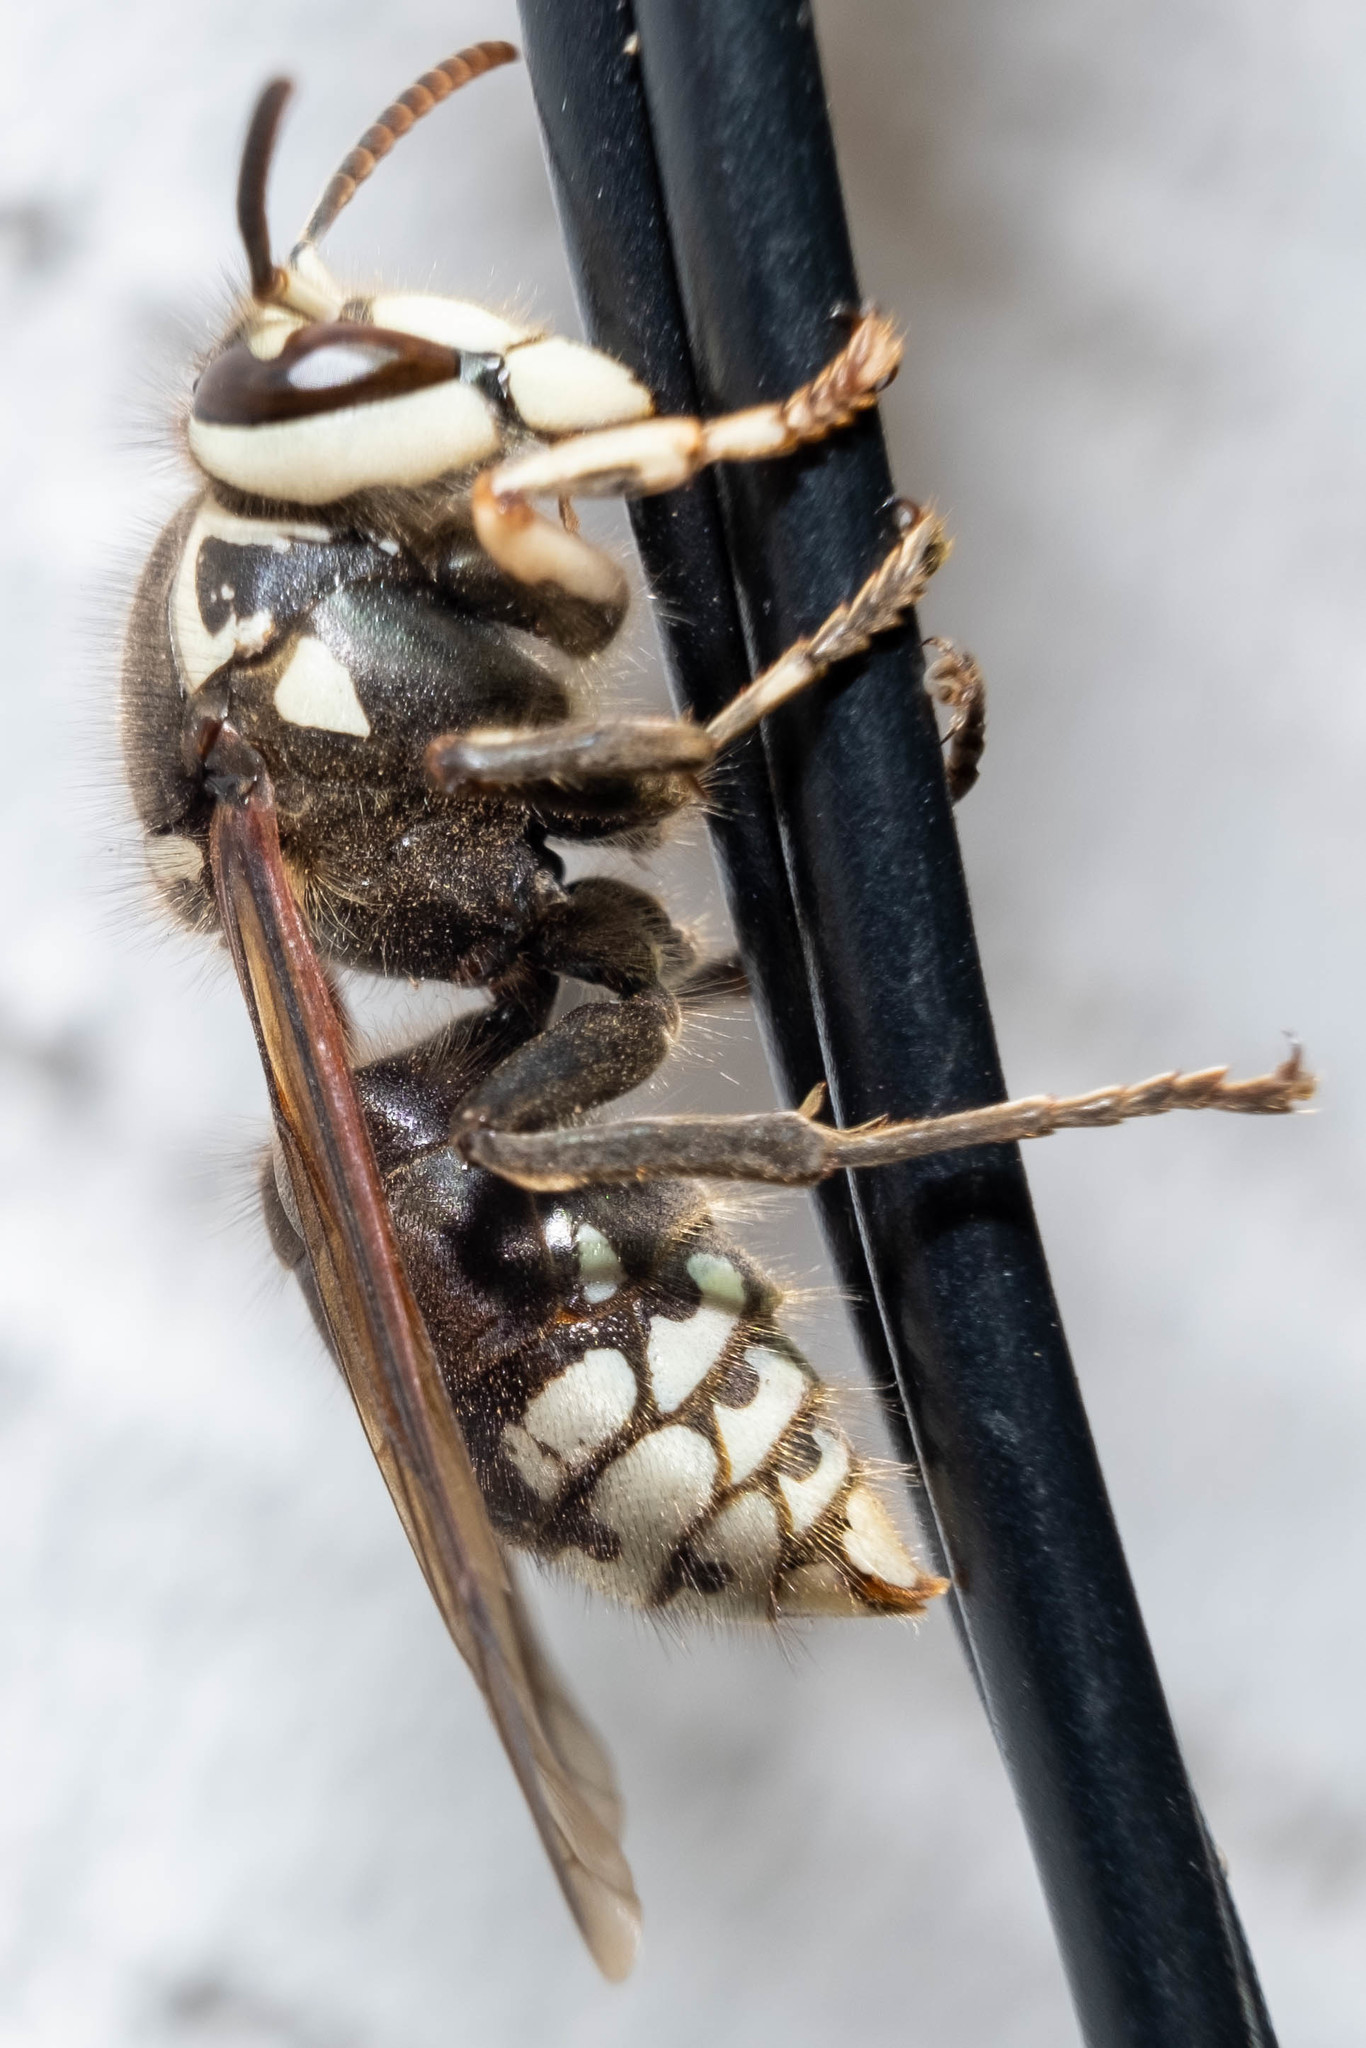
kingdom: Animalia
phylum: Arthropoda
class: Insecta
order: Hymenoptera
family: Vespidae
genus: Dolichovespula
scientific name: Dolichovespula maculata
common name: Bald-faced hornet
